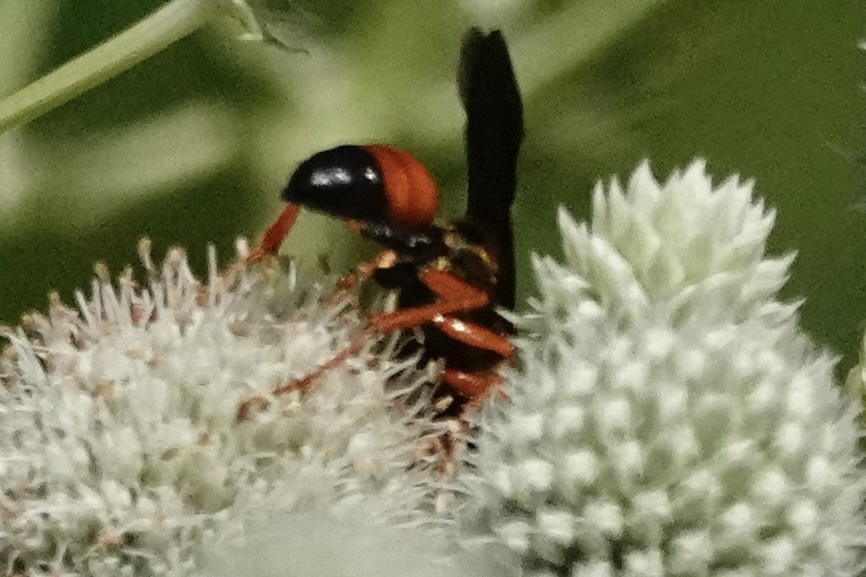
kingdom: Animalia
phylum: Arthropoda
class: Insecta
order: Hymenoptera
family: Sphecidae
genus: Sphex
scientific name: Sphex ichneumoneus
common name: Great golden digger wasp
